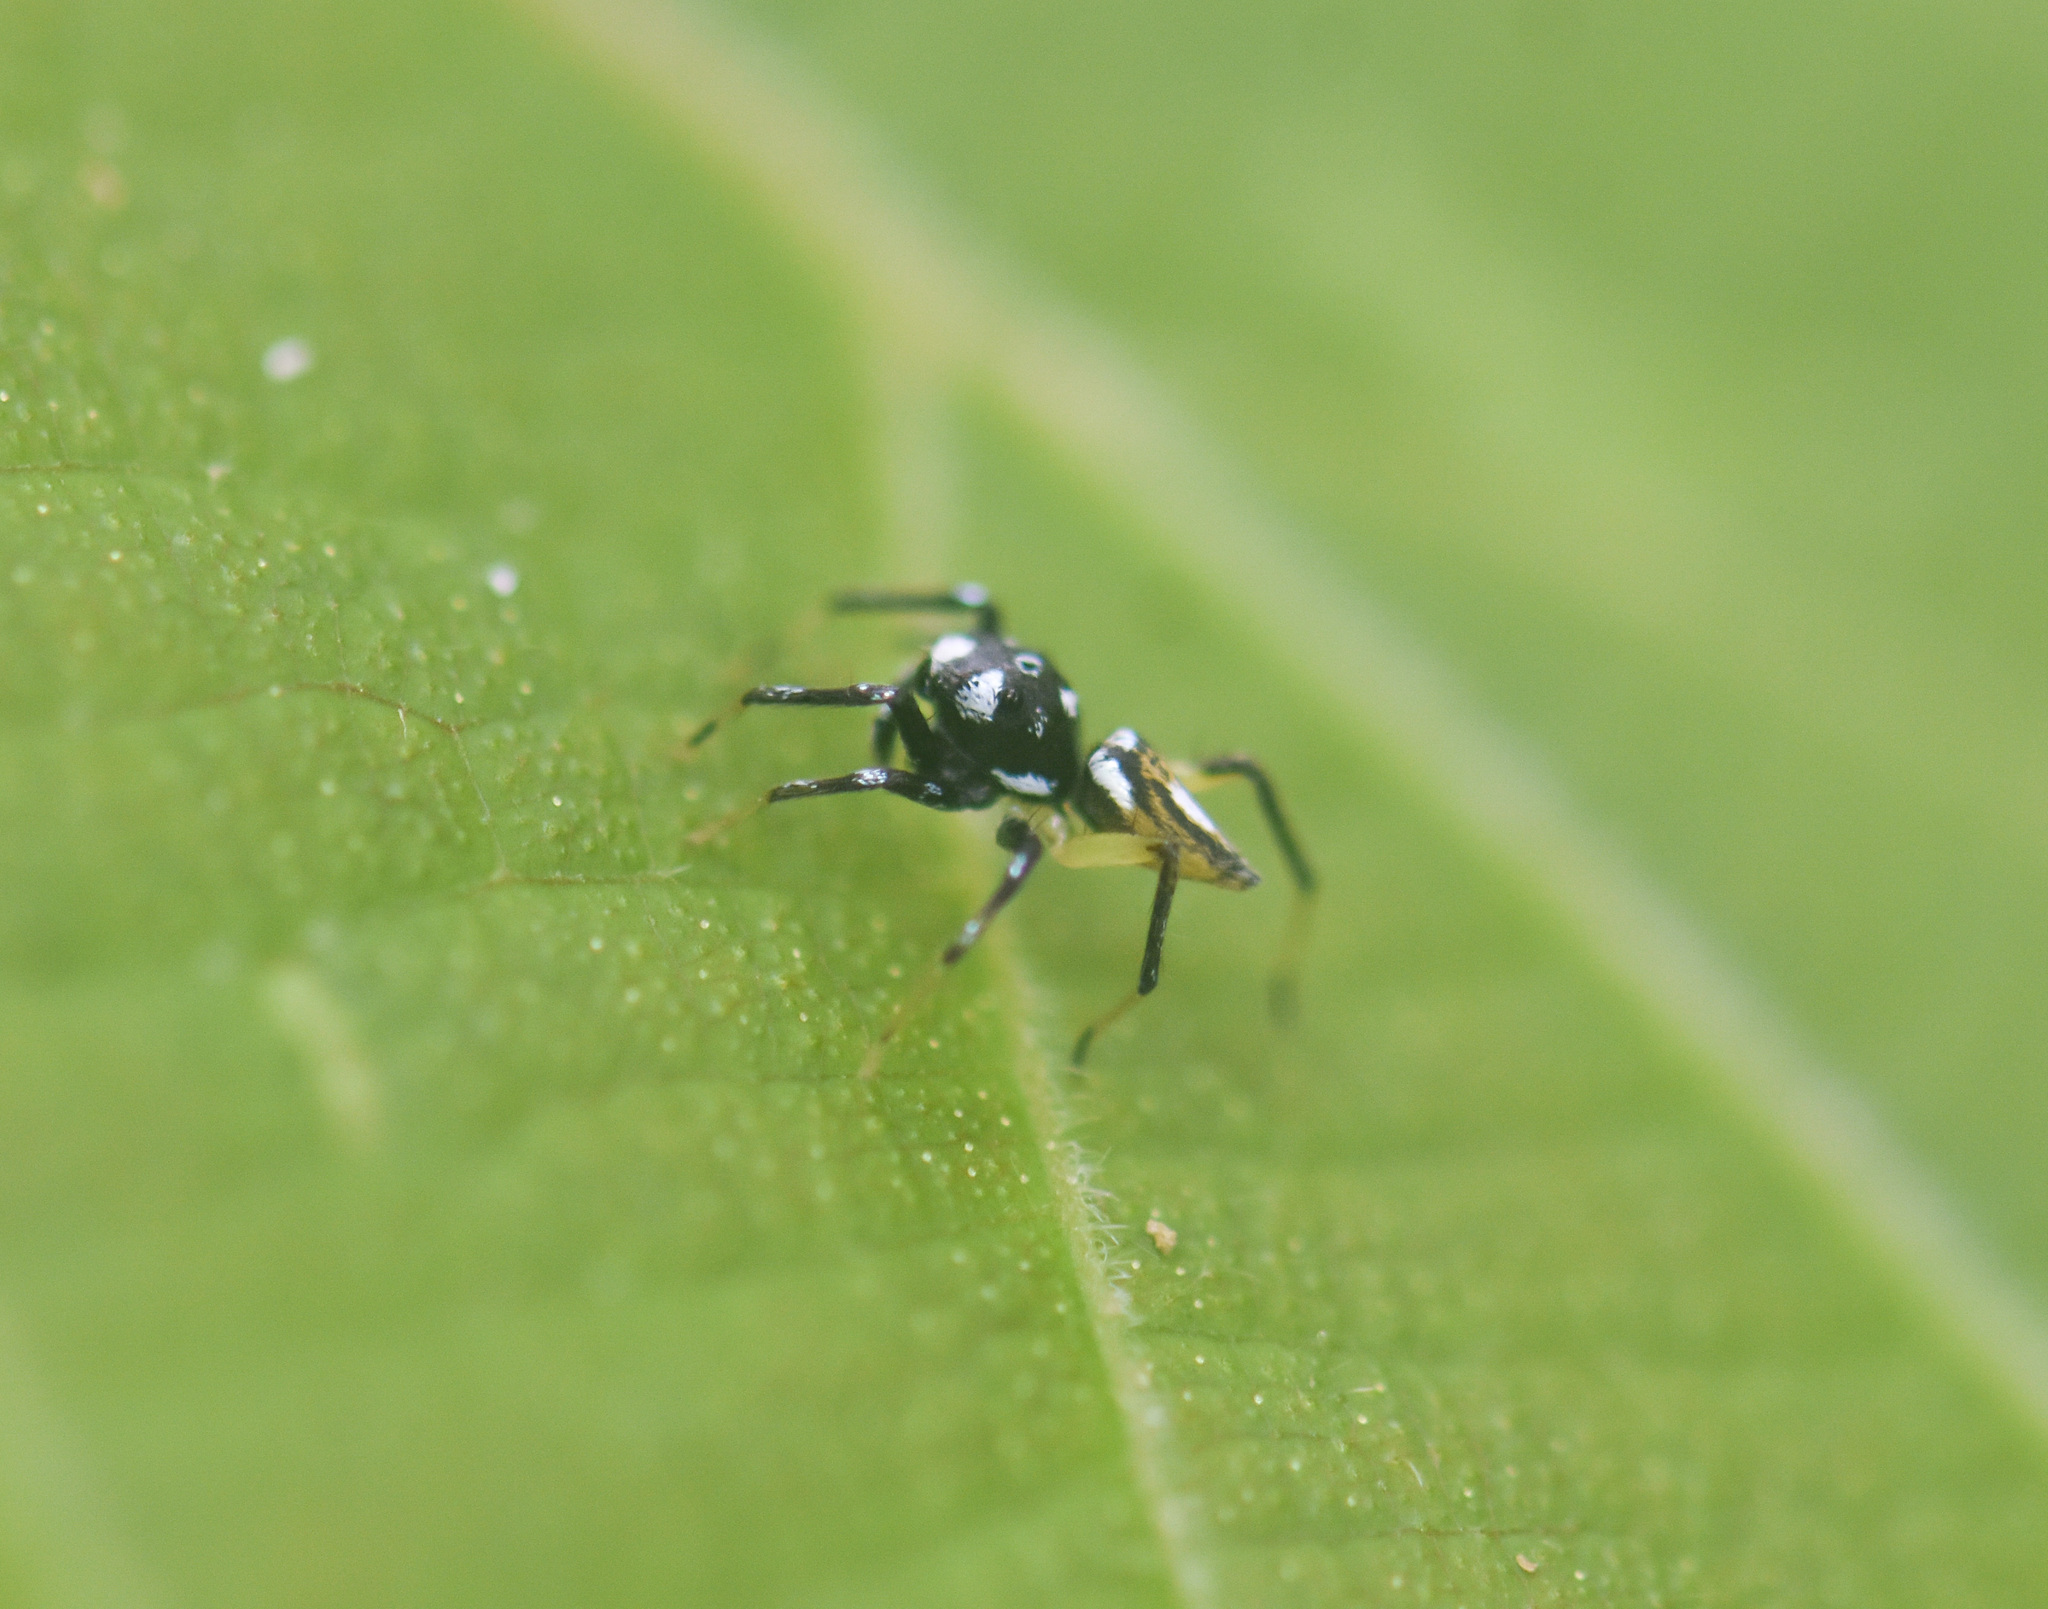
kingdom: Animalia
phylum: Arthropoda
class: Arachnida
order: Araneae
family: Salticidae
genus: Phintella
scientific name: Phintella bifurcilinea
